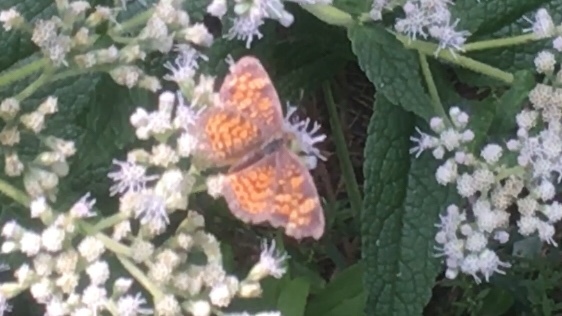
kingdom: Animalia
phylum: Arthropoda
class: Insecta
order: Lepidoptera
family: Nymphalidae
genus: Phyciodes
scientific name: Phyciodes tharos
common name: Pearl crescent
